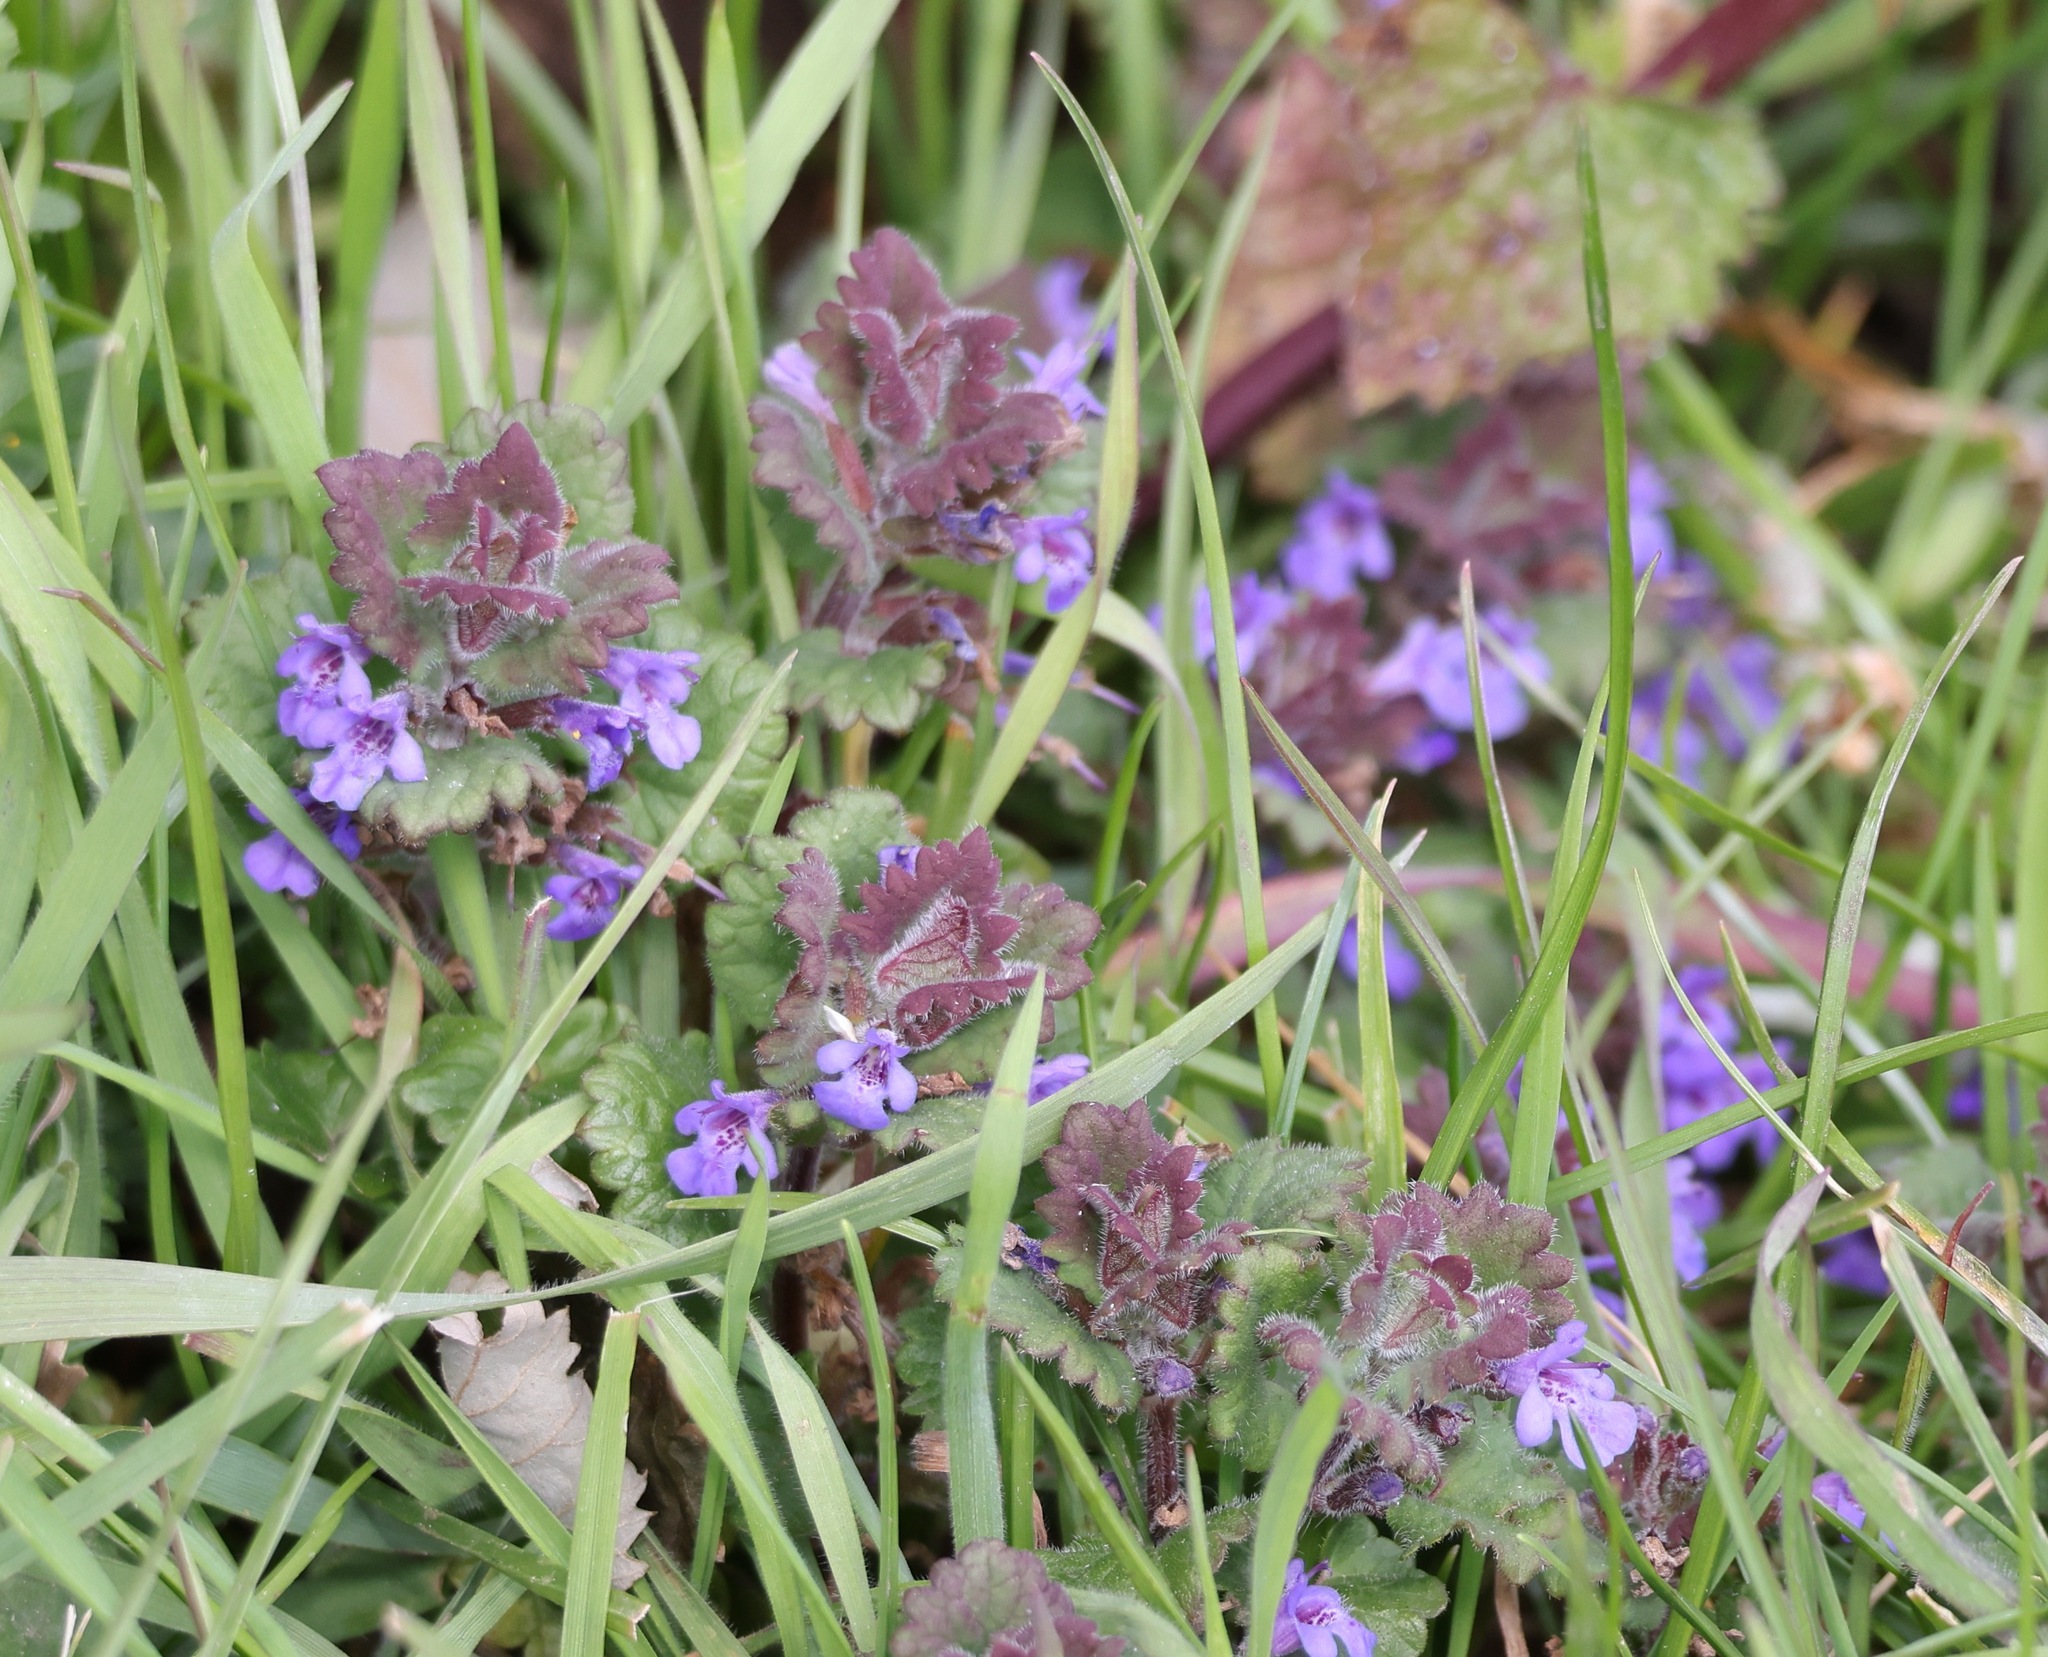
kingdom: Plantae
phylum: Tracheophyta
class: Magnoliopsida
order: Lamiales
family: Lamiaceae
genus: Glechoma
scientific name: Glechoma hederacea
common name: Ground ivy
